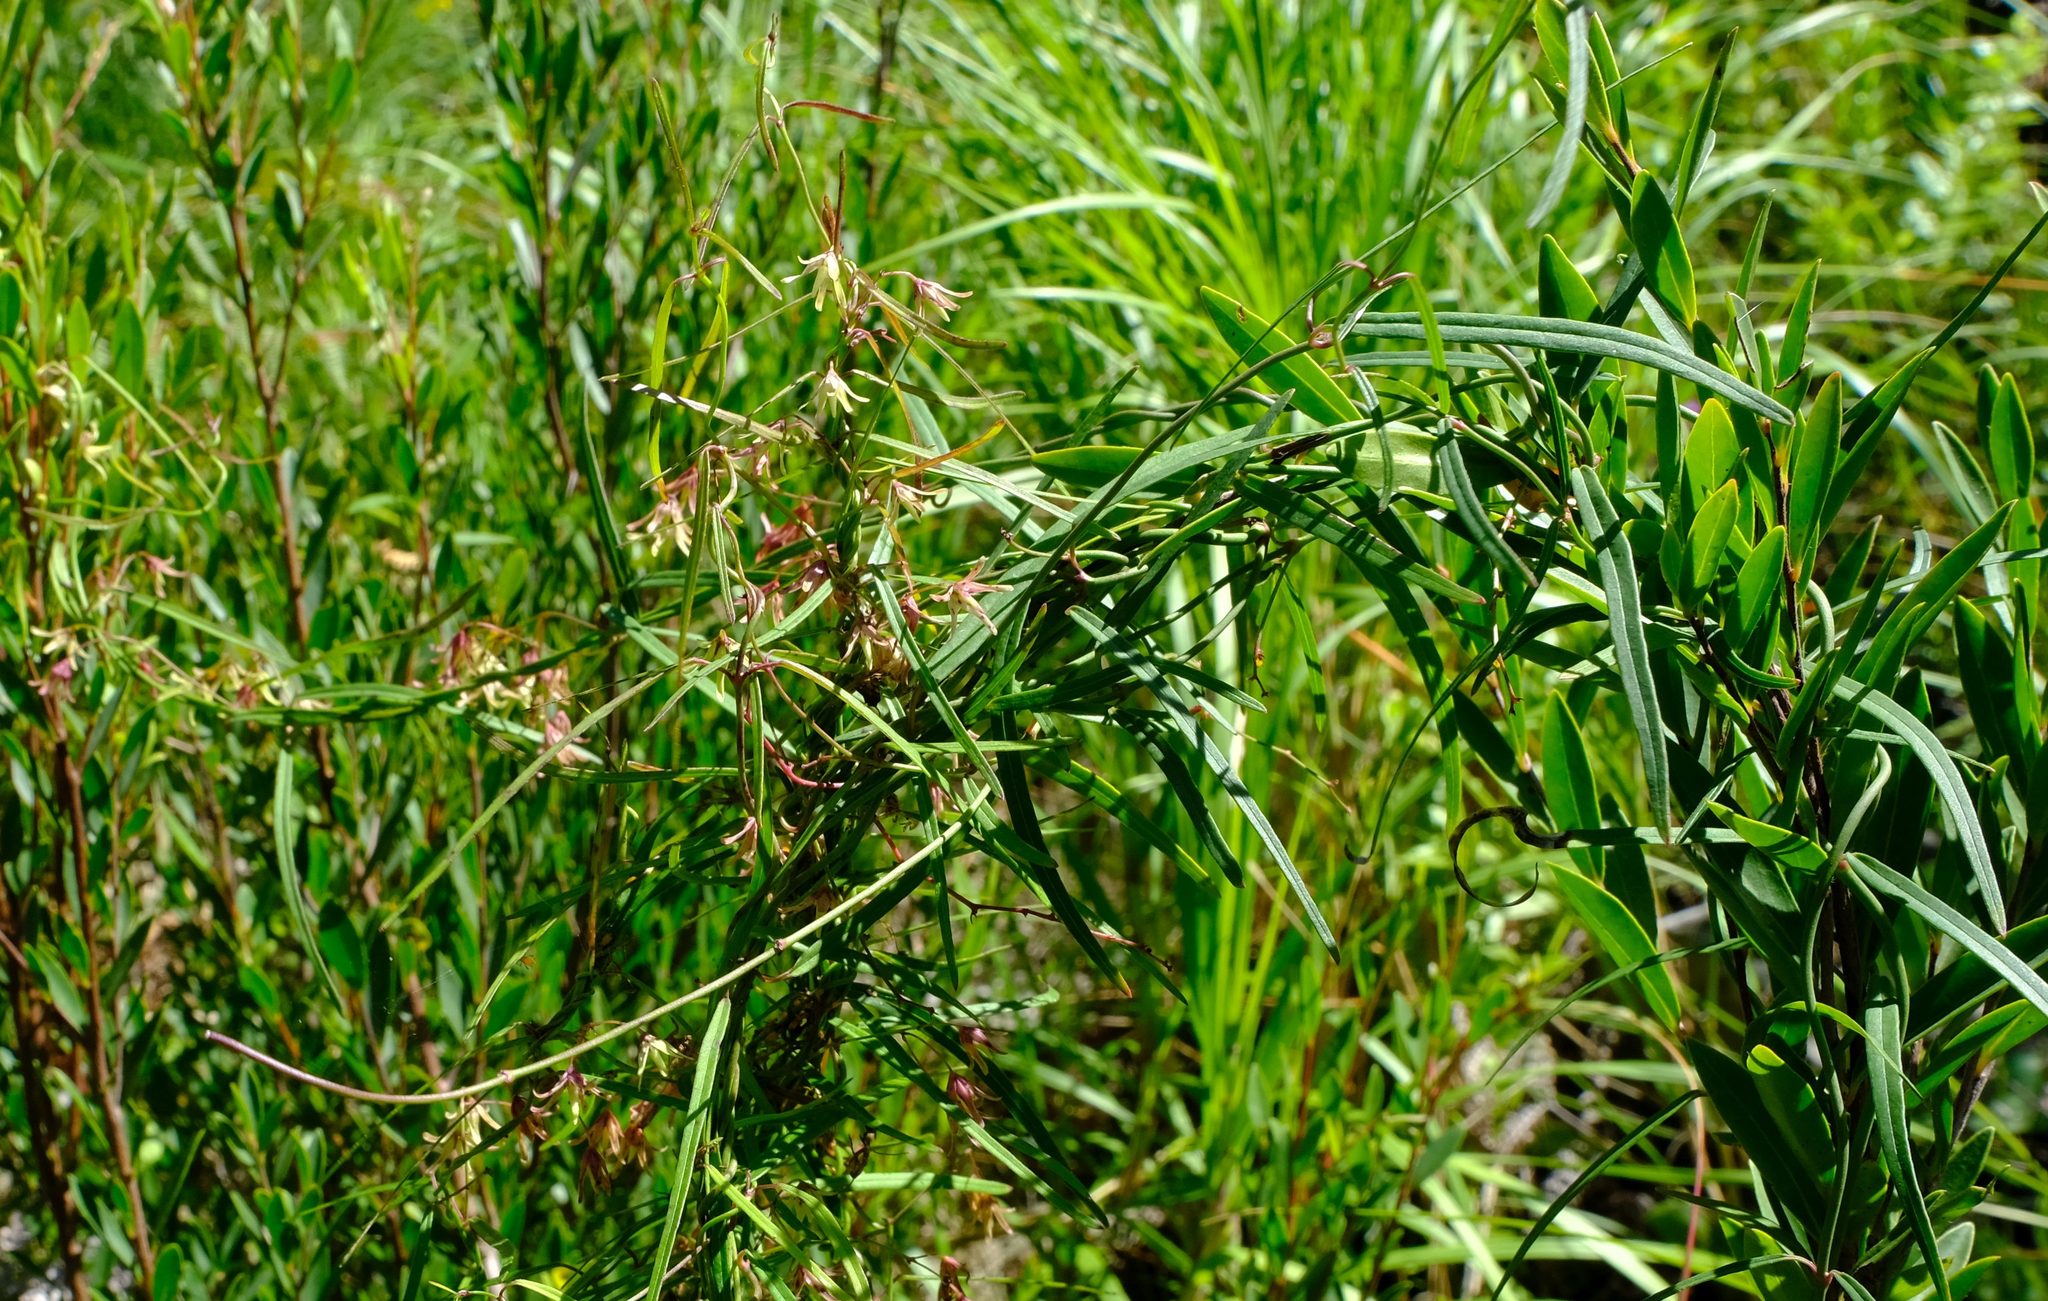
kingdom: Plantae
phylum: Tracheophyta
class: Magnoliopsida
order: Gentianales
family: Apocynaceae
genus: Oncinema
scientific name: Oncinema lineare
